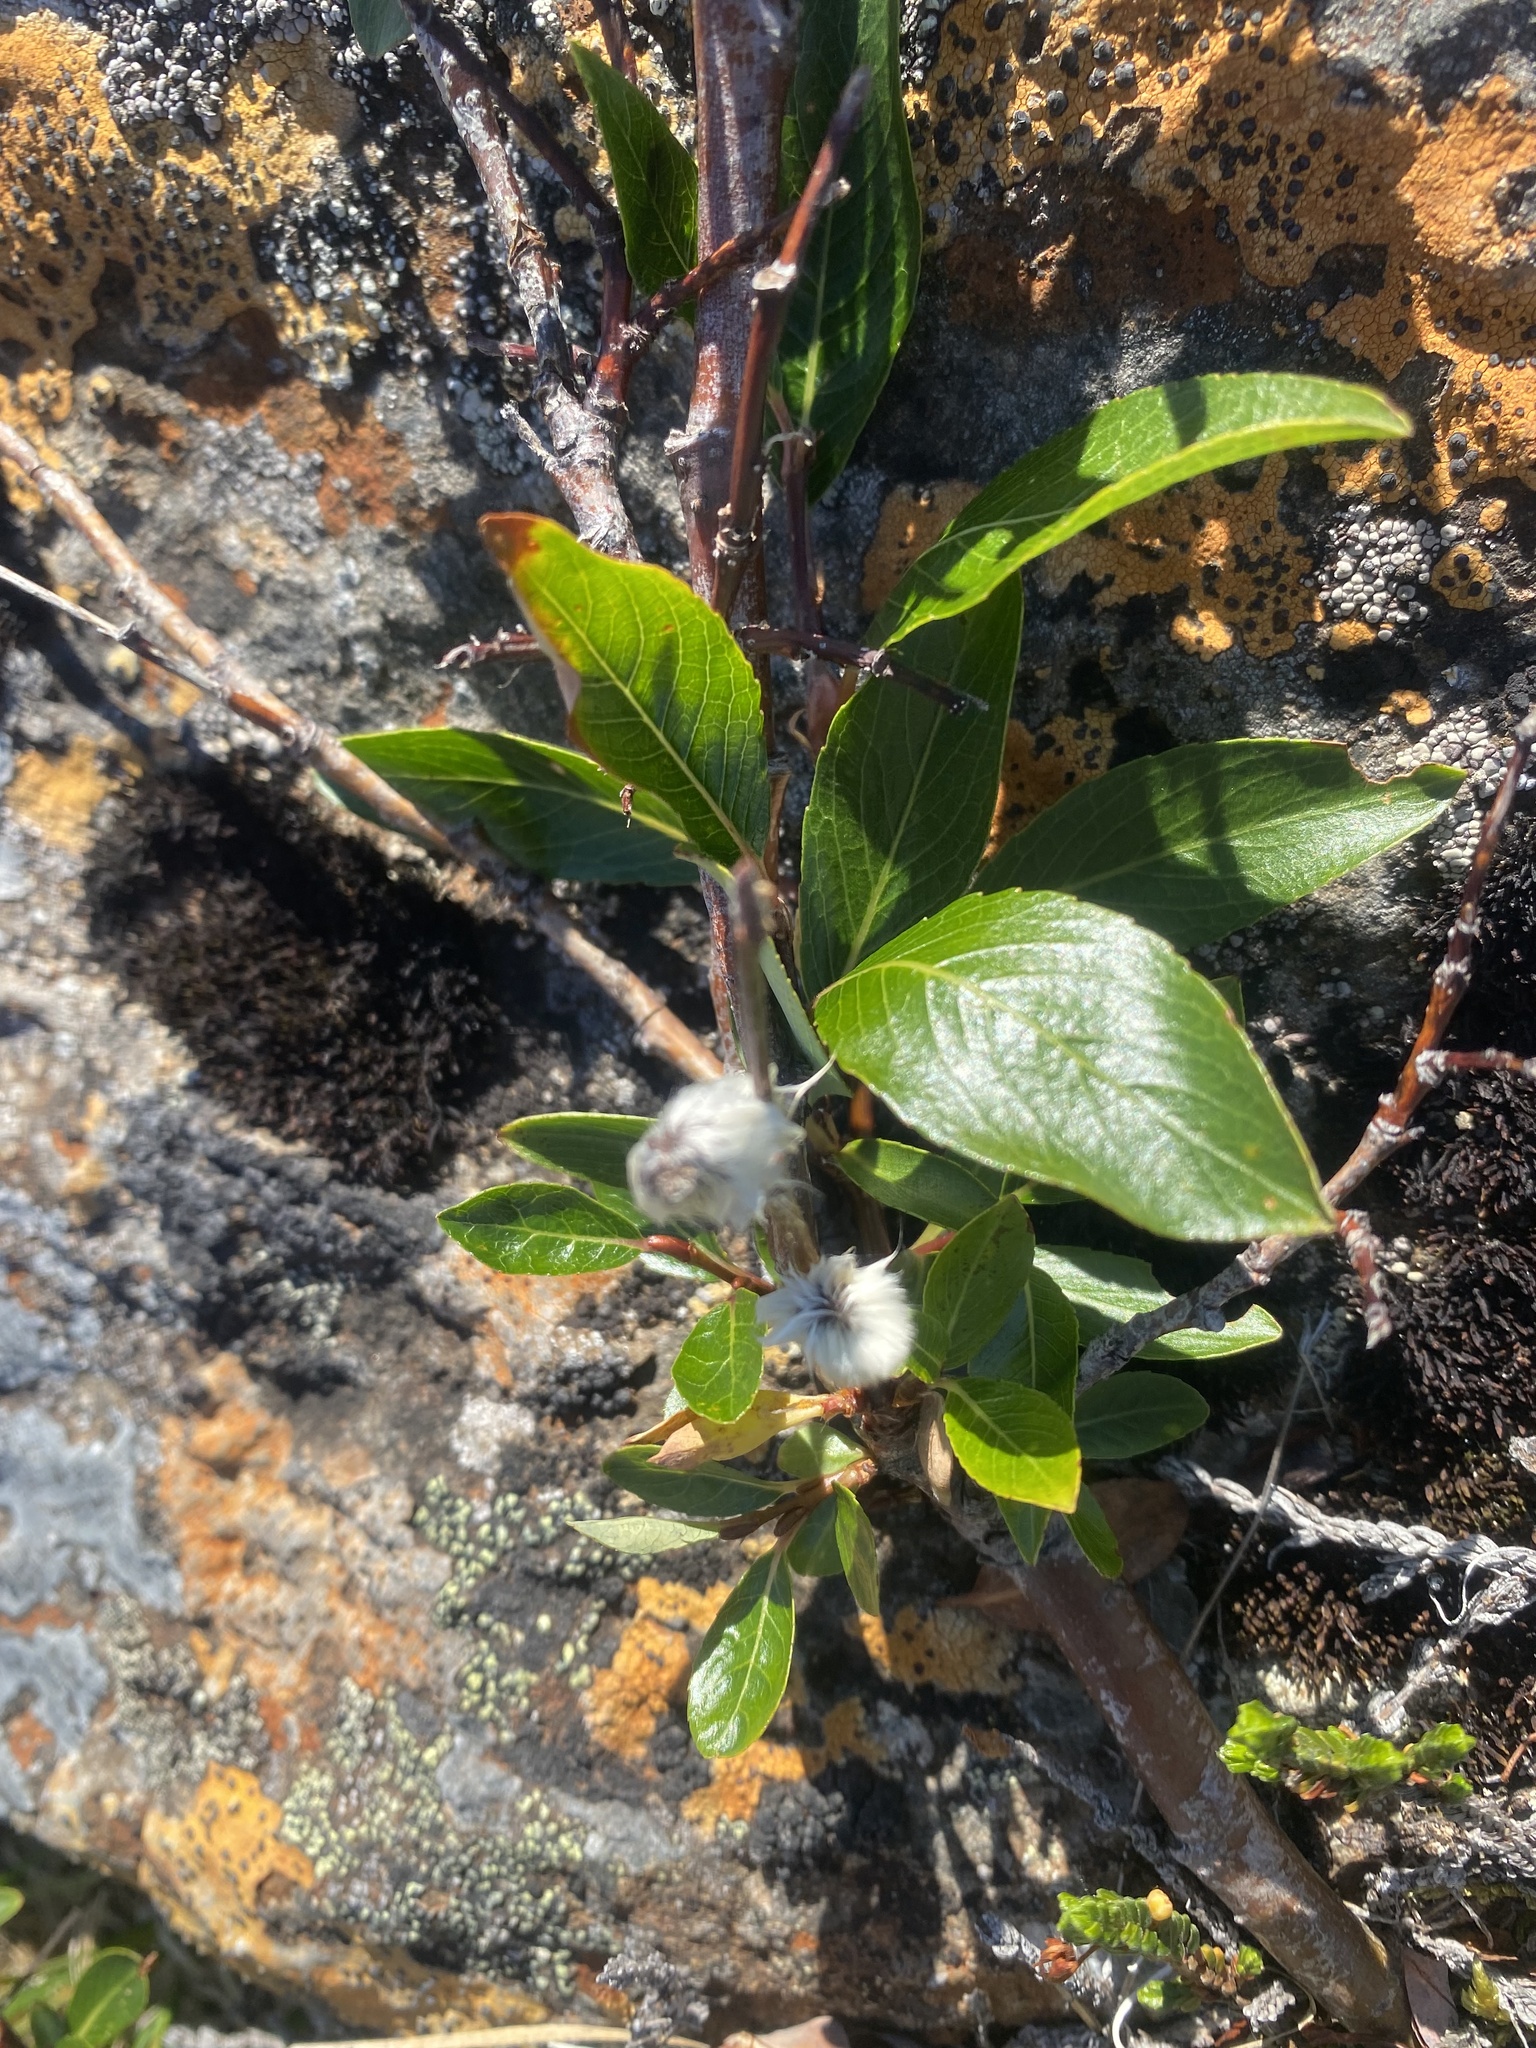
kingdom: Plantae
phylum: Tracheophyta
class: Magnoliopsida
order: Malpighiales
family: Salicaceae
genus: Salix
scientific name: Salix pulchra
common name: Diamond-leaved willow
